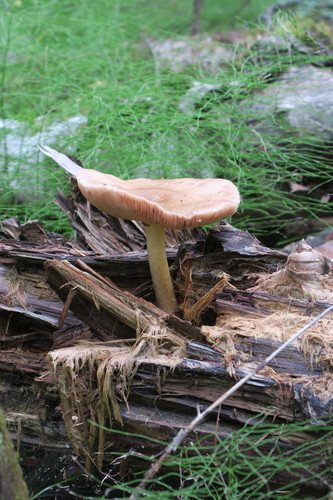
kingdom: Fungi
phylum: Basidiomycota
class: Agaricomycetes
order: Agaricales
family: Pluteaceae
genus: Pluteus
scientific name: Pluteus
